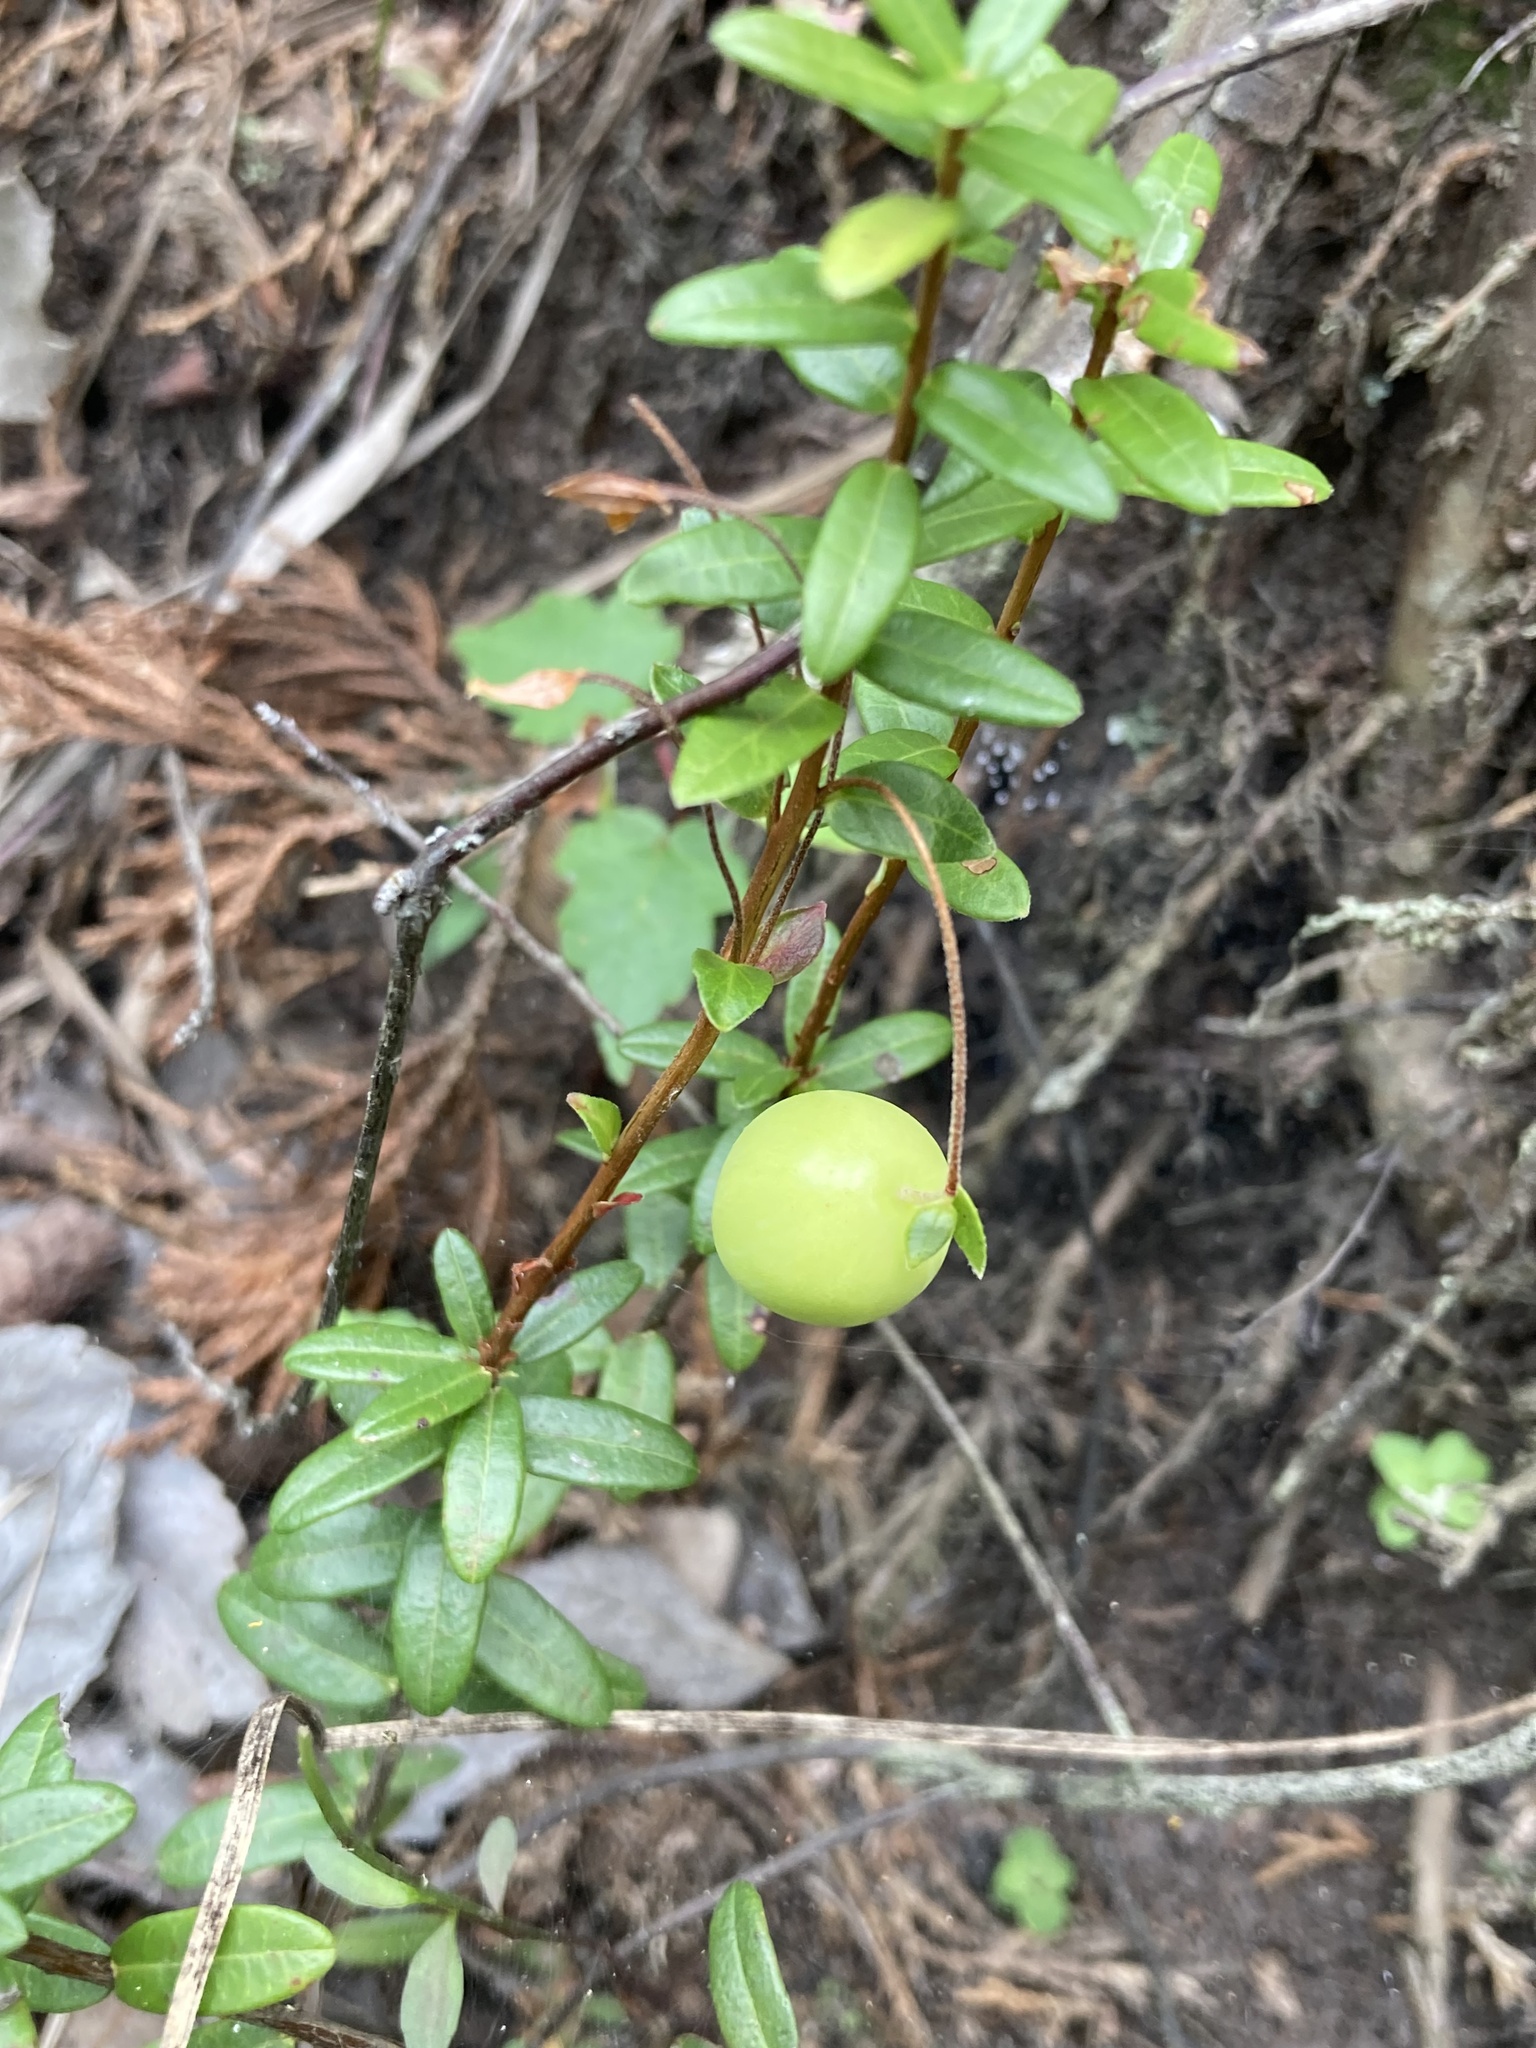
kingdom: Plantae
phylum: Tracheophyta
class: Magnoliopsida
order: Ericales
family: Ericaceae
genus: Vaccinium
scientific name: Vaccinium macrocarpon
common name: American cranberry
